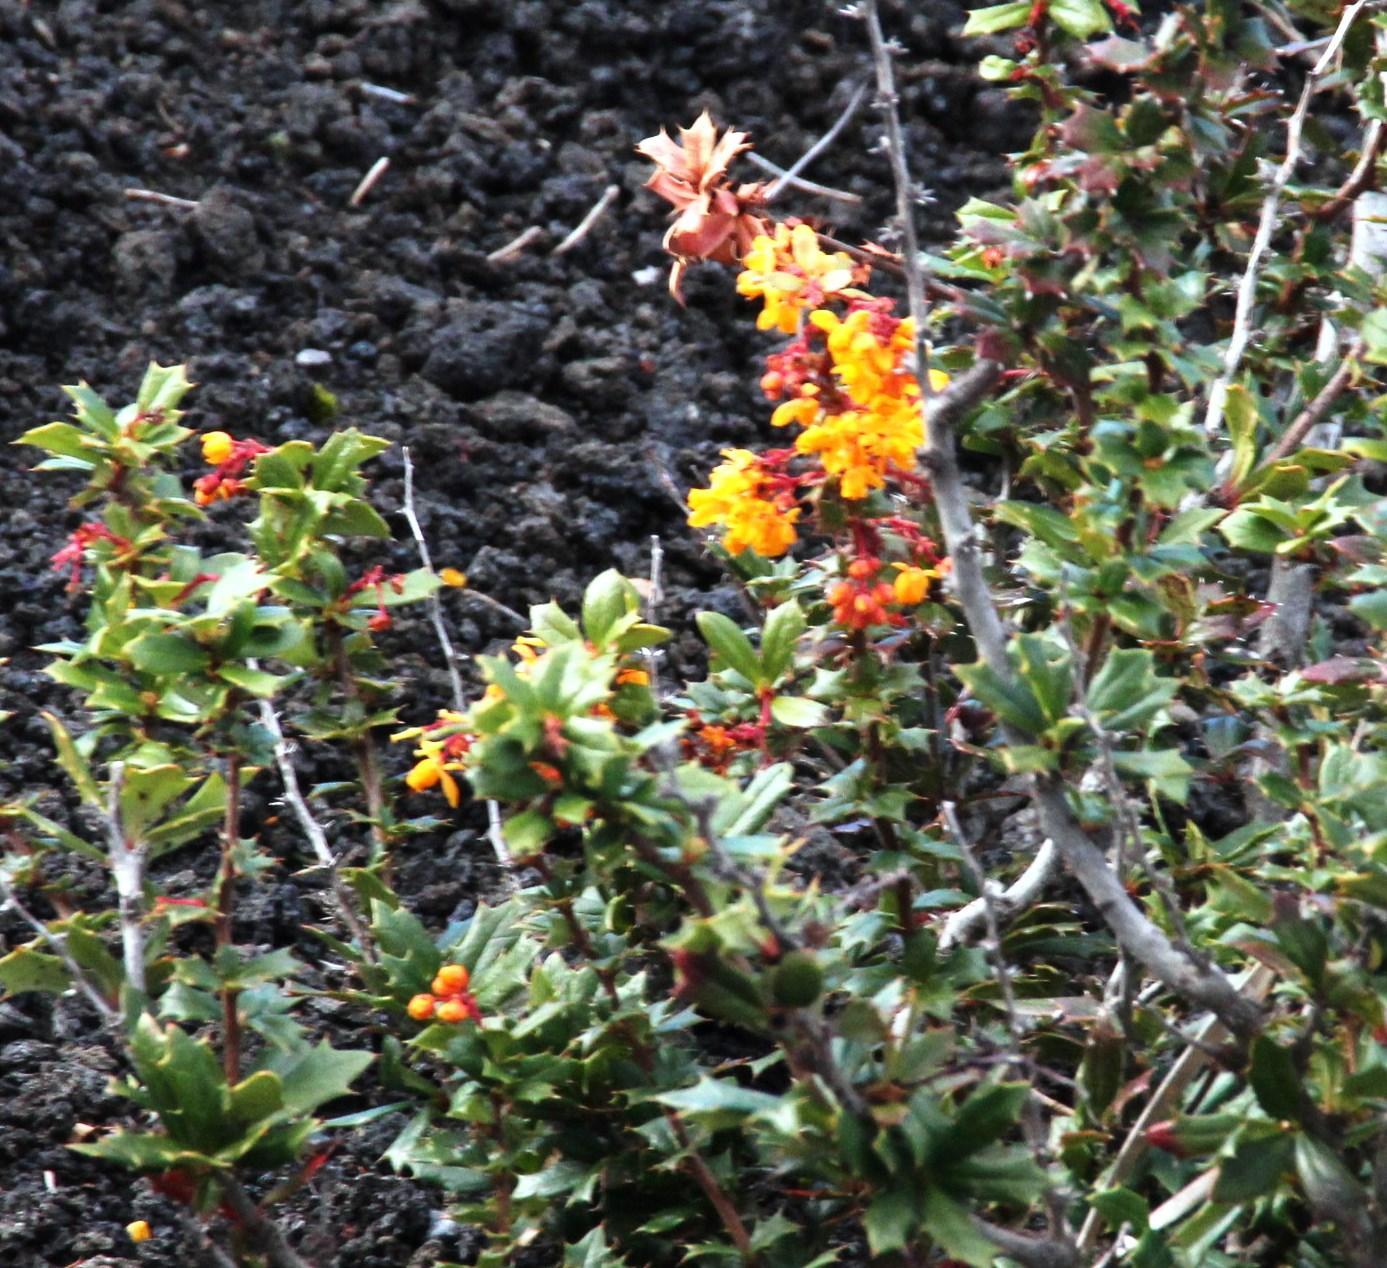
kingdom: Plantae
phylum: Tracheophyta
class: Magnoliopsida
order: Ranunculales
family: Berberidaceae
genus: Berberis
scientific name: Berberis darwinii
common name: Darwin's barberry
